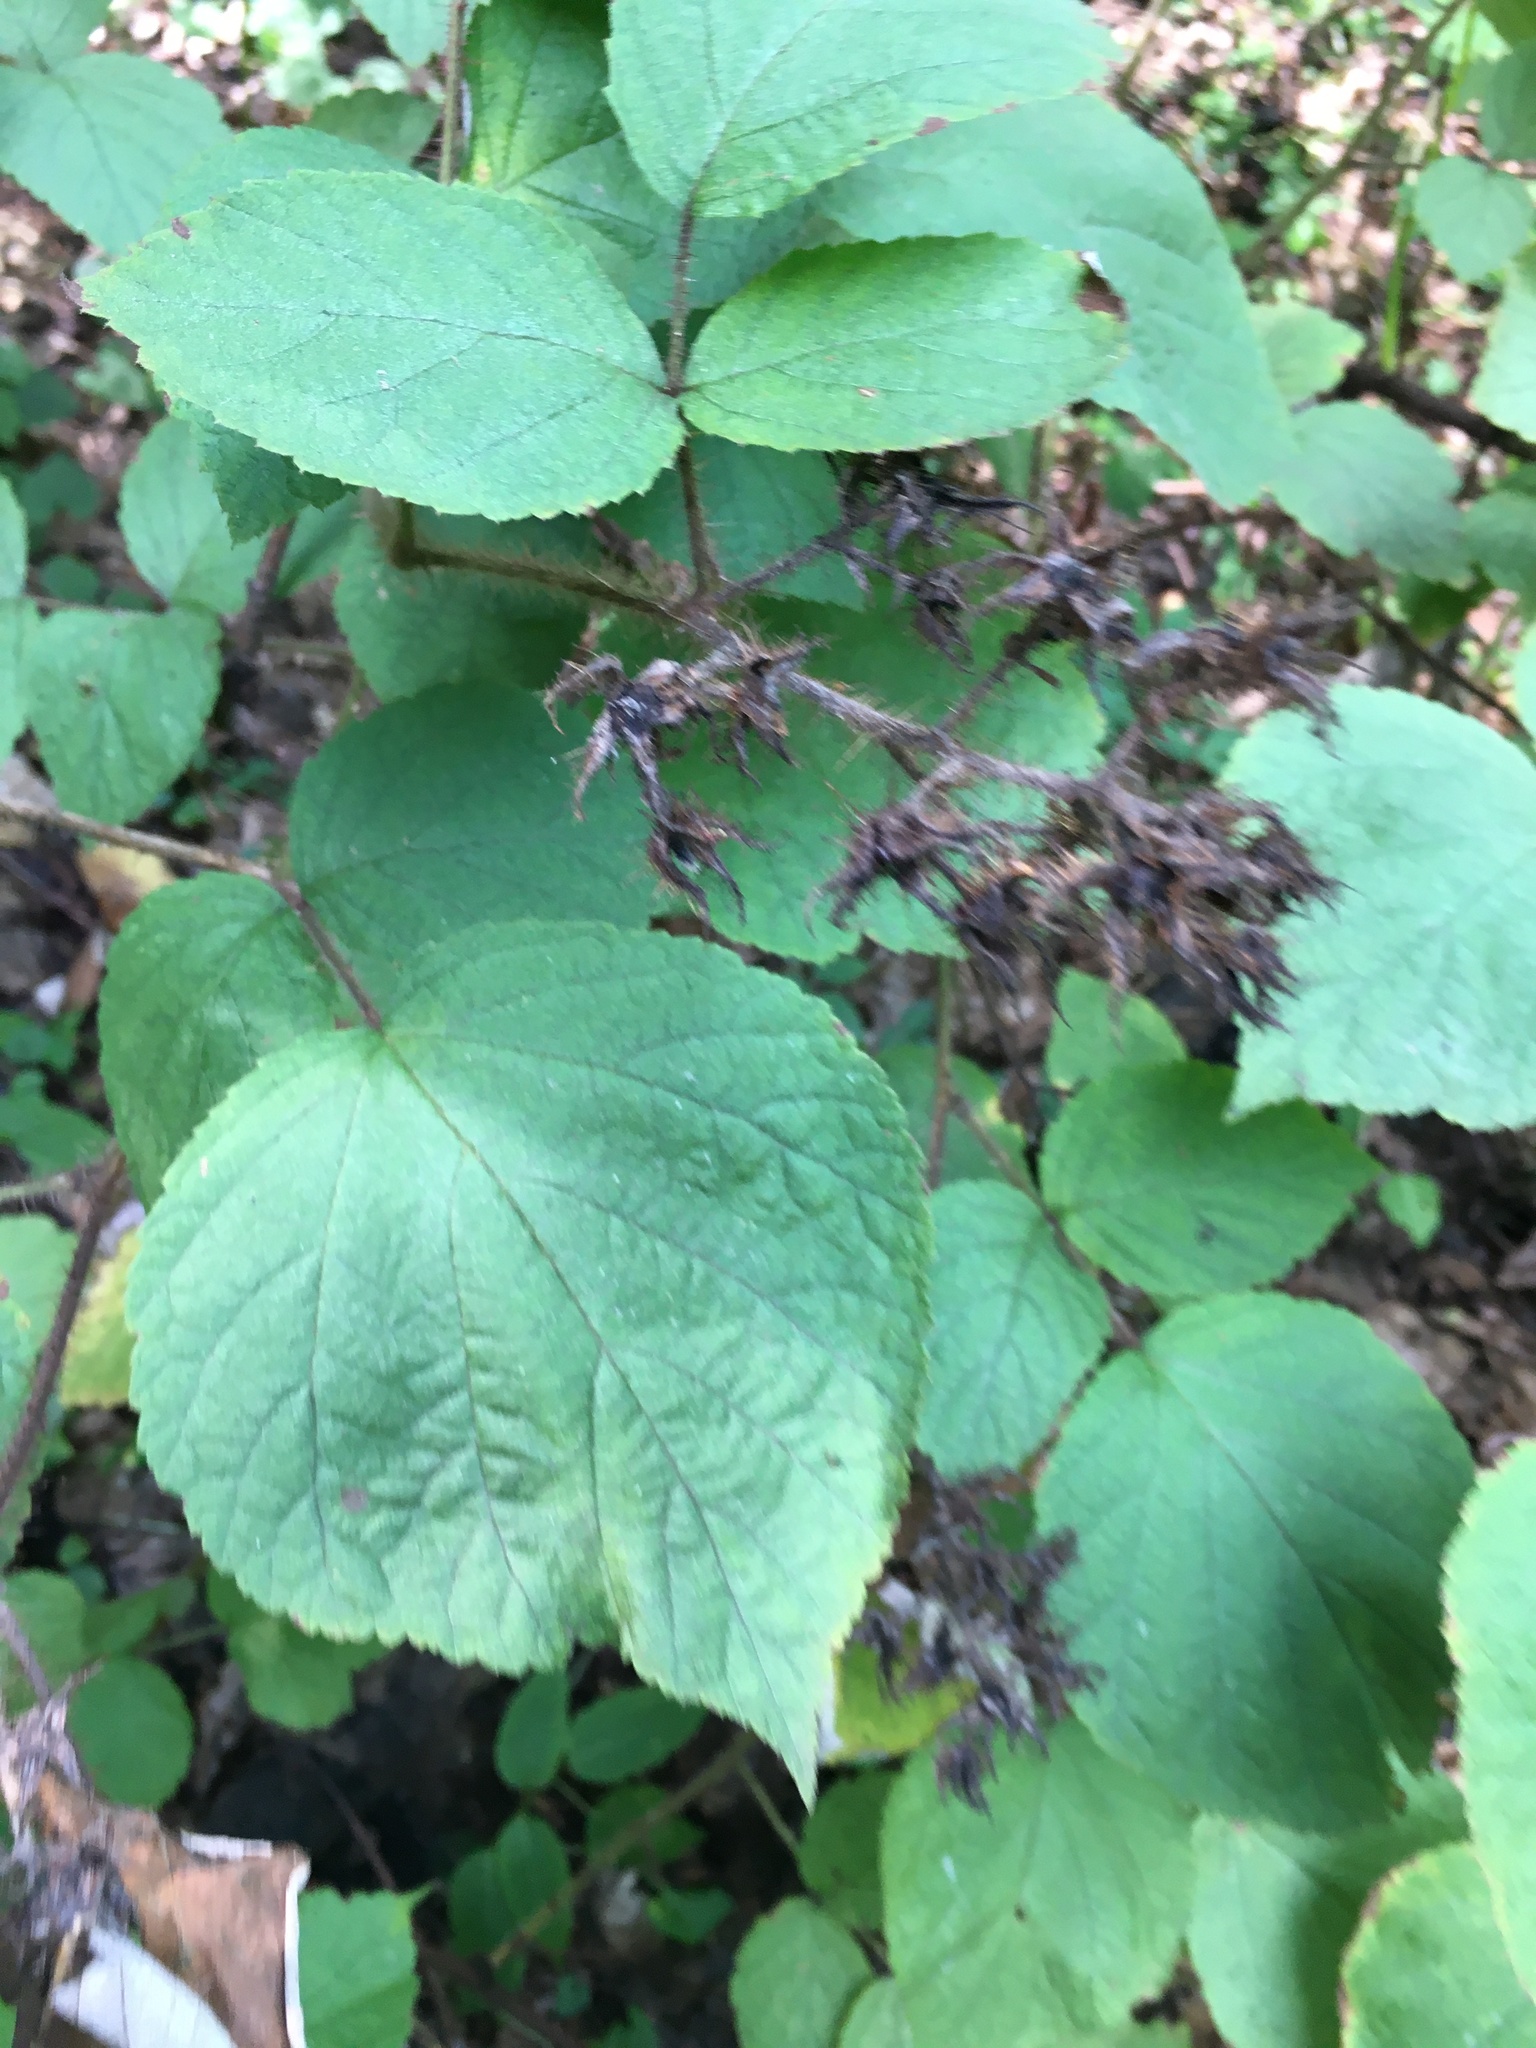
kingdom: Plantae
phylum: Tracheophyta
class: Magnoliopsida
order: Rosales
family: Rosaceae
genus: Rubus
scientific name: Rubus phoenicolasius
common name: Japanese wineberry
